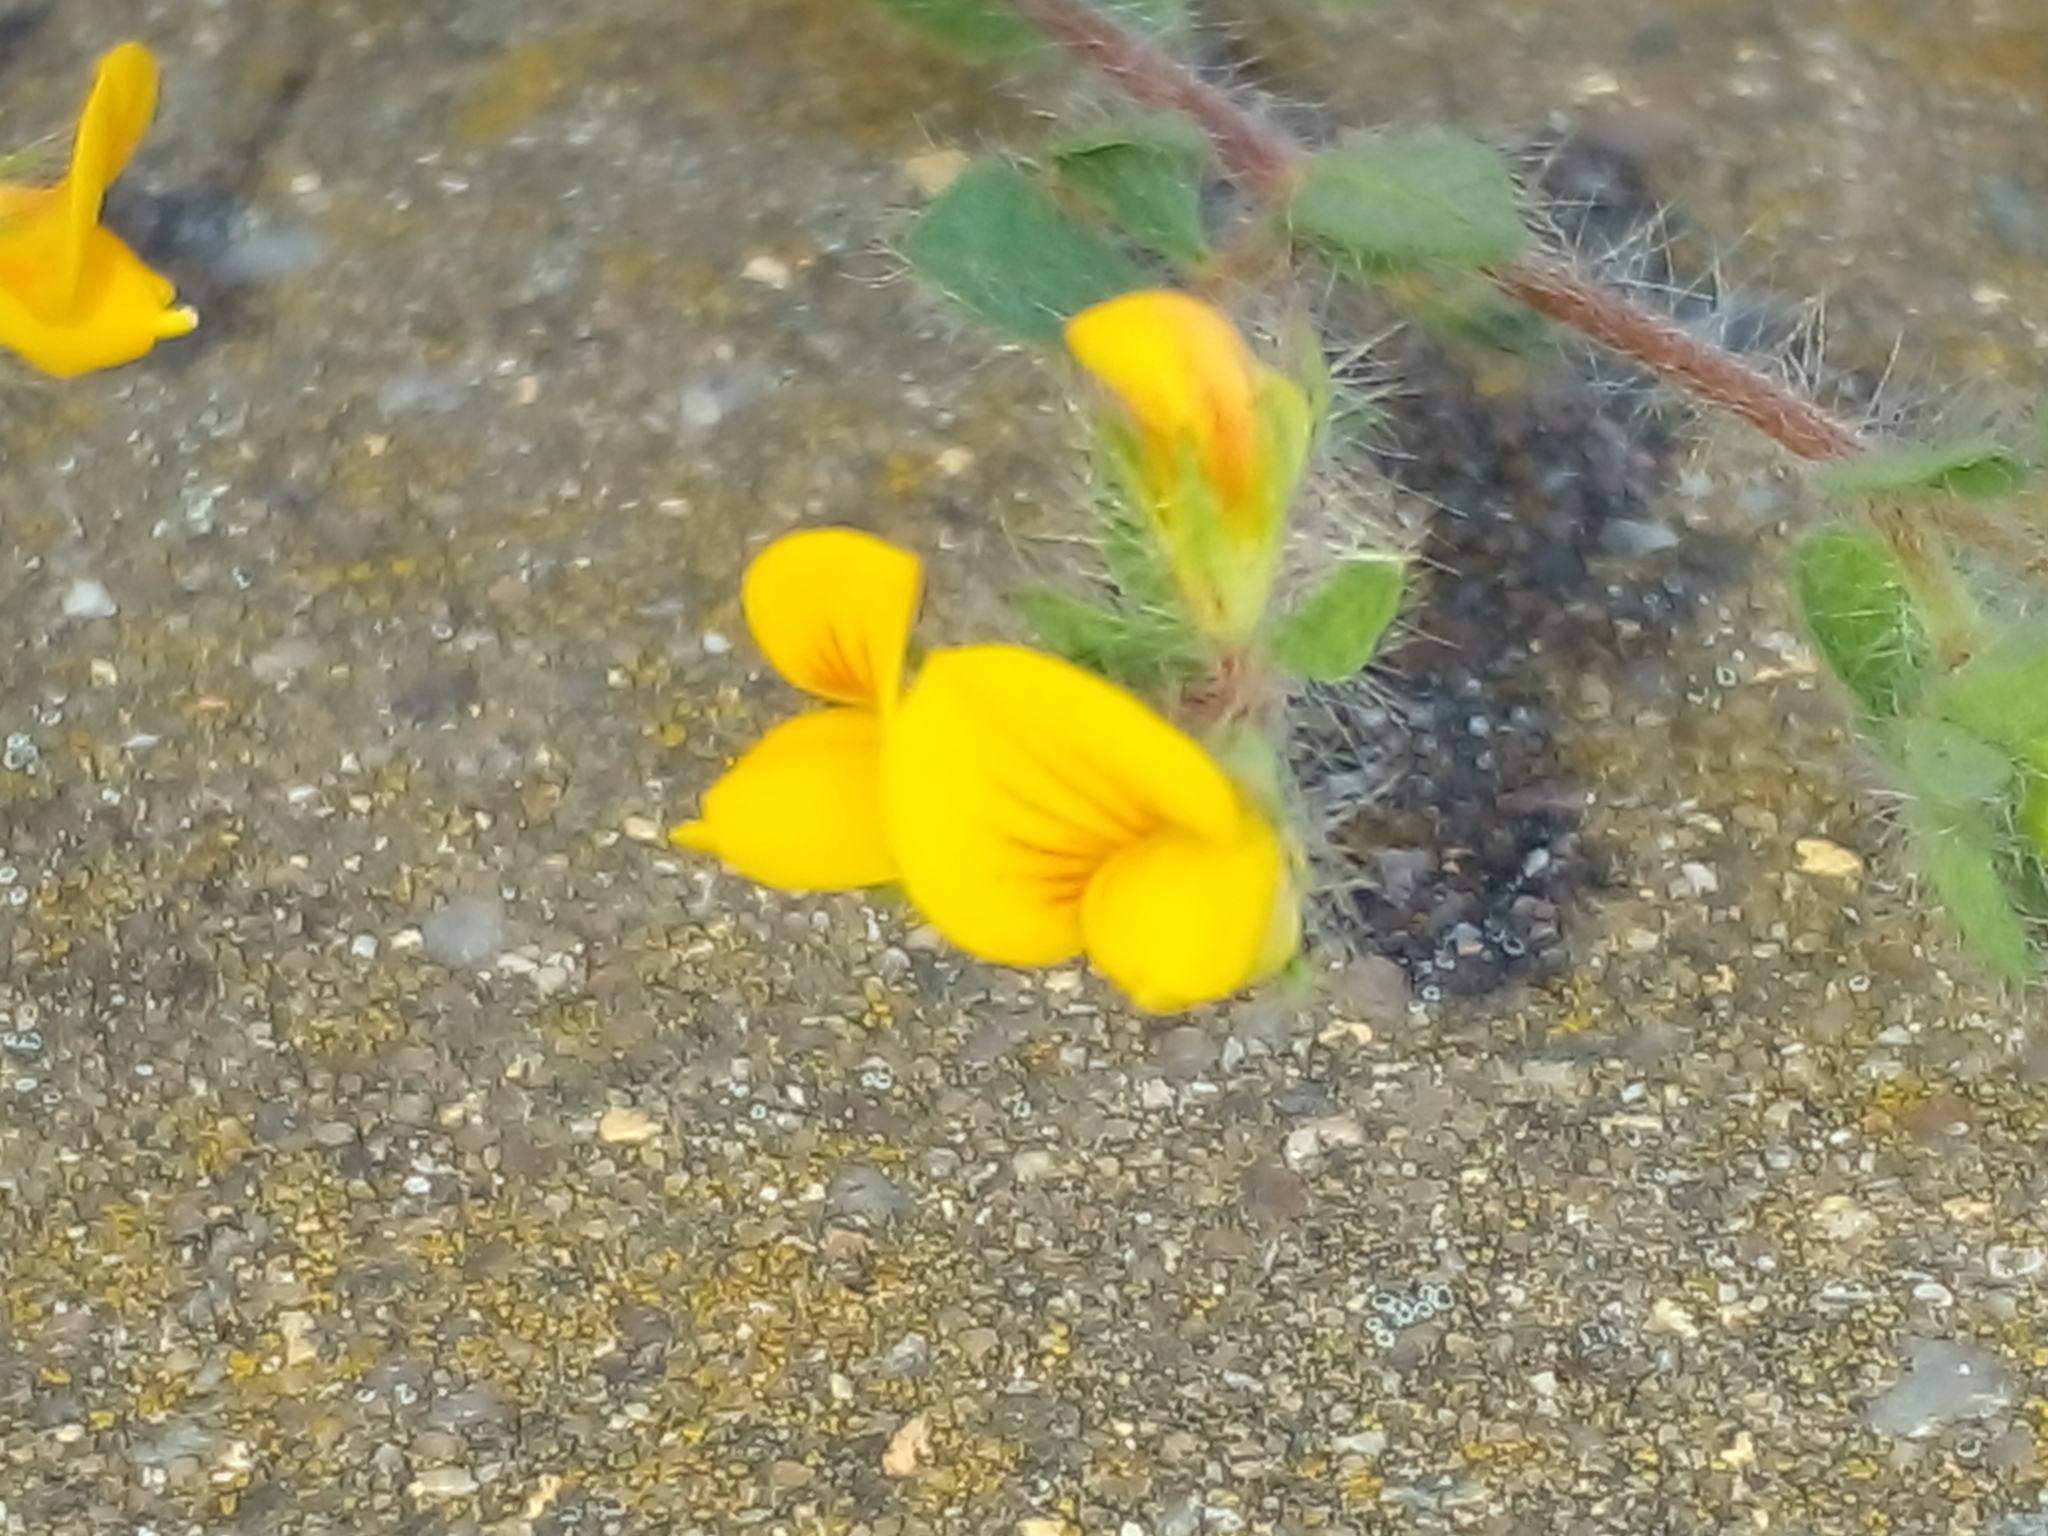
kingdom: Plantae
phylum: Tracheophyta
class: Magnoliopsida
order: Fabales
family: Fabaceae
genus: Lotus
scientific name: Lotus subbiflorus
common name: Hairy bird's-foot trefoil
